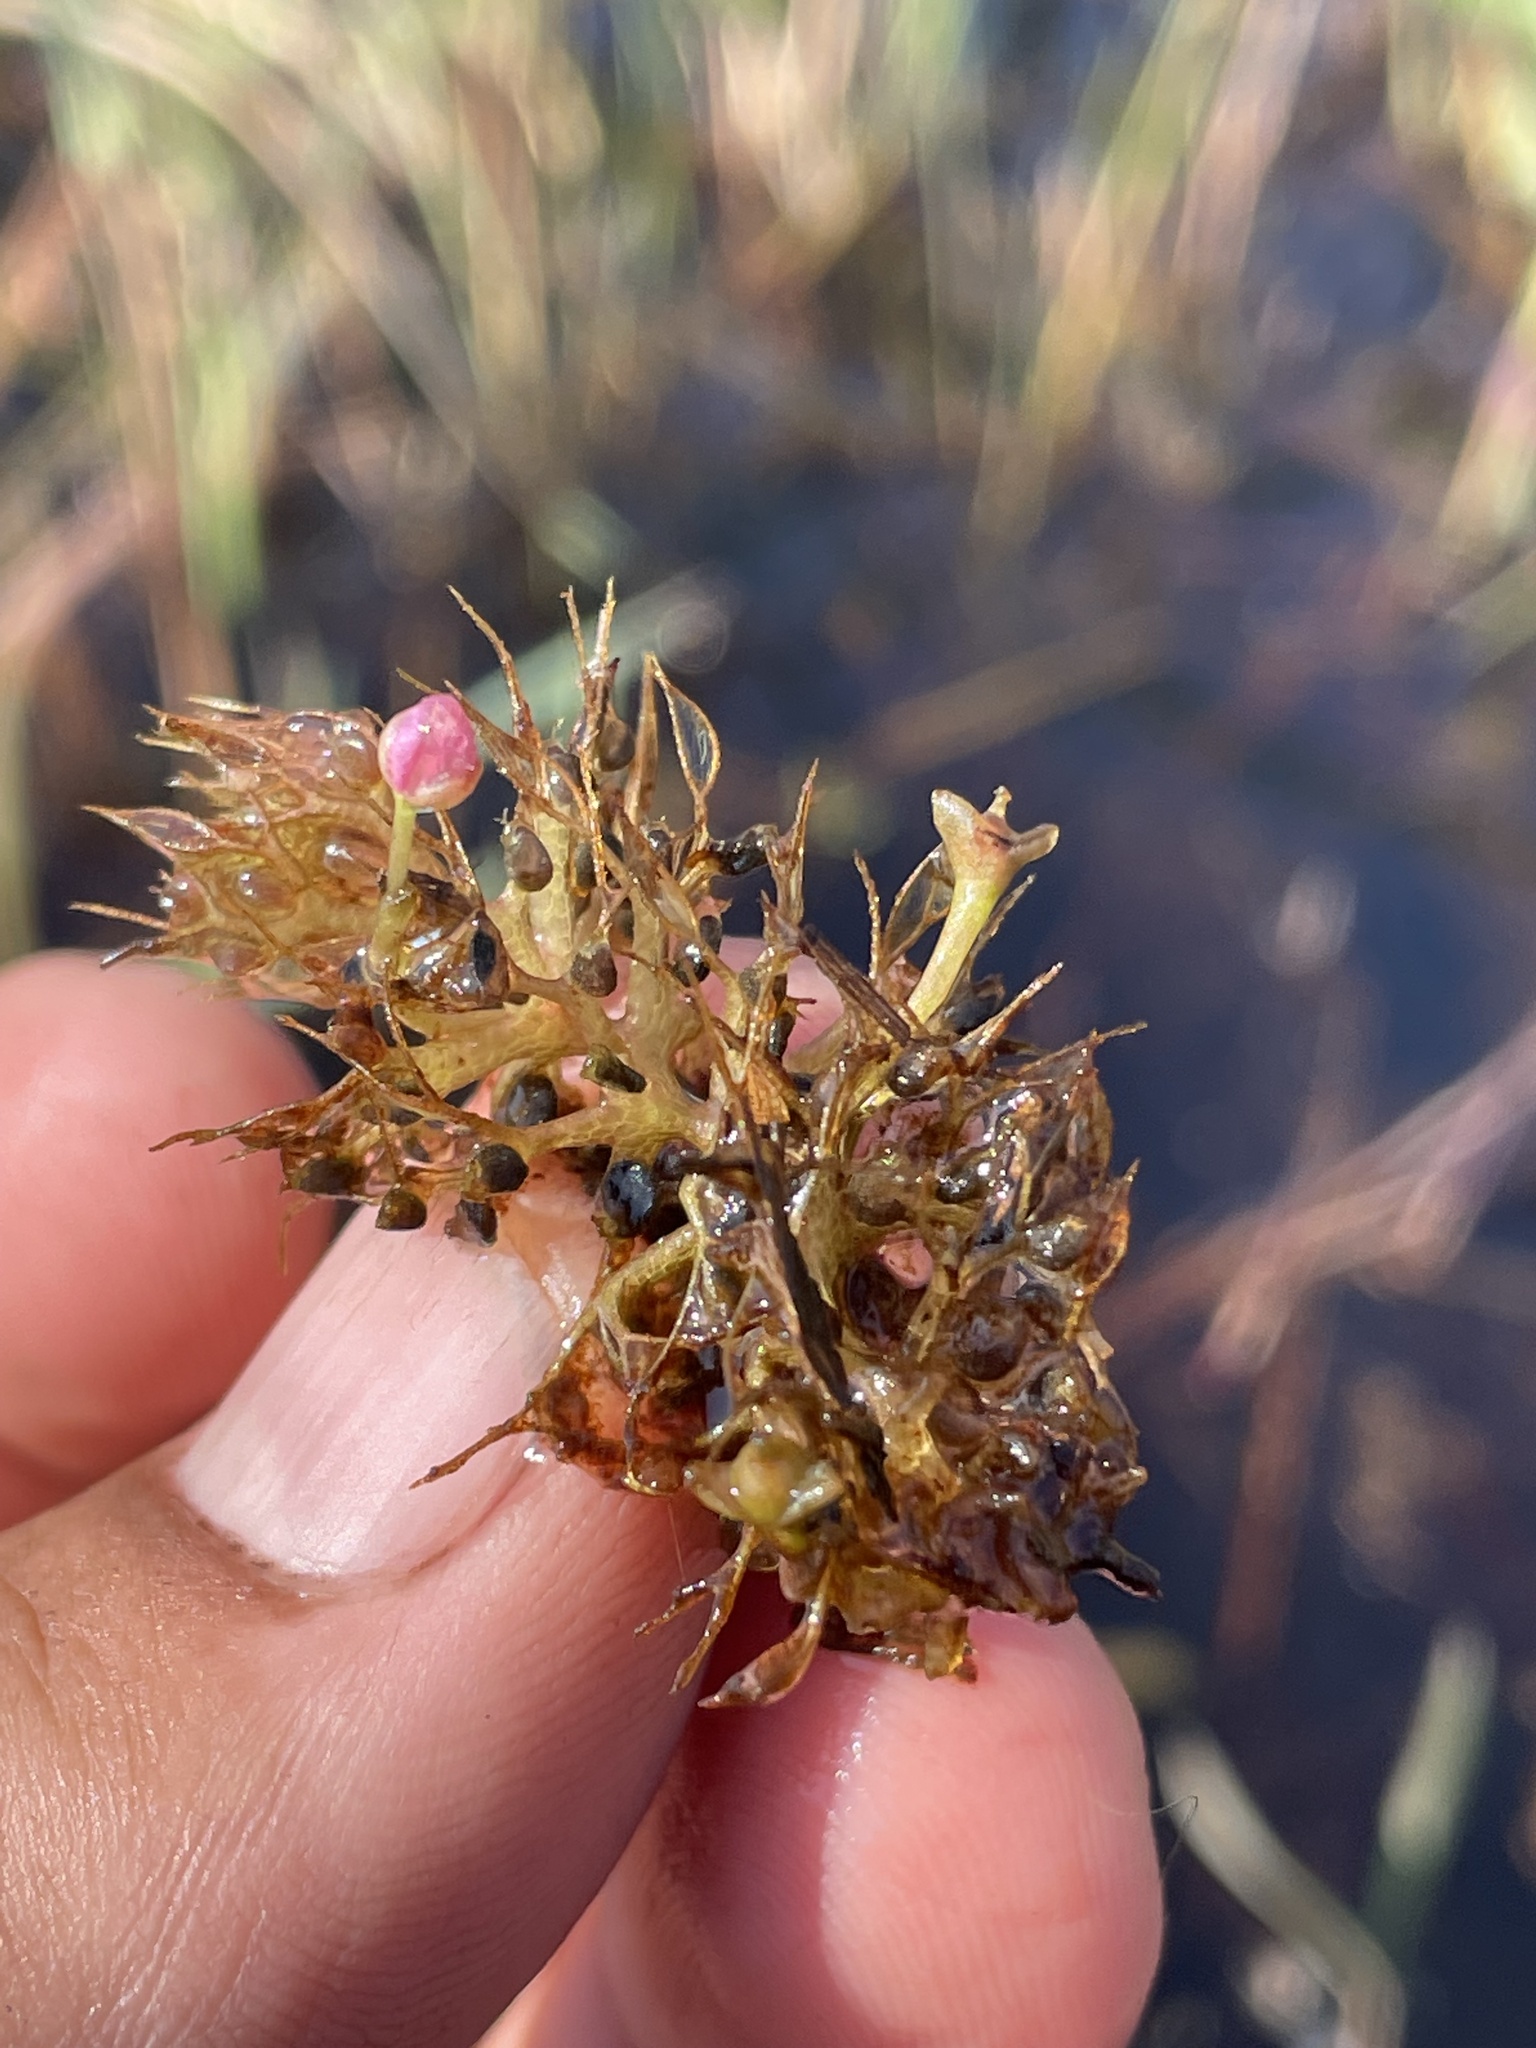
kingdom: Plantae
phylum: Tracheophyta
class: Magnoliopsida
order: Lamiales
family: Lentibulariaceae
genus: Utricularia
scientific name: Utricularia raynalii
